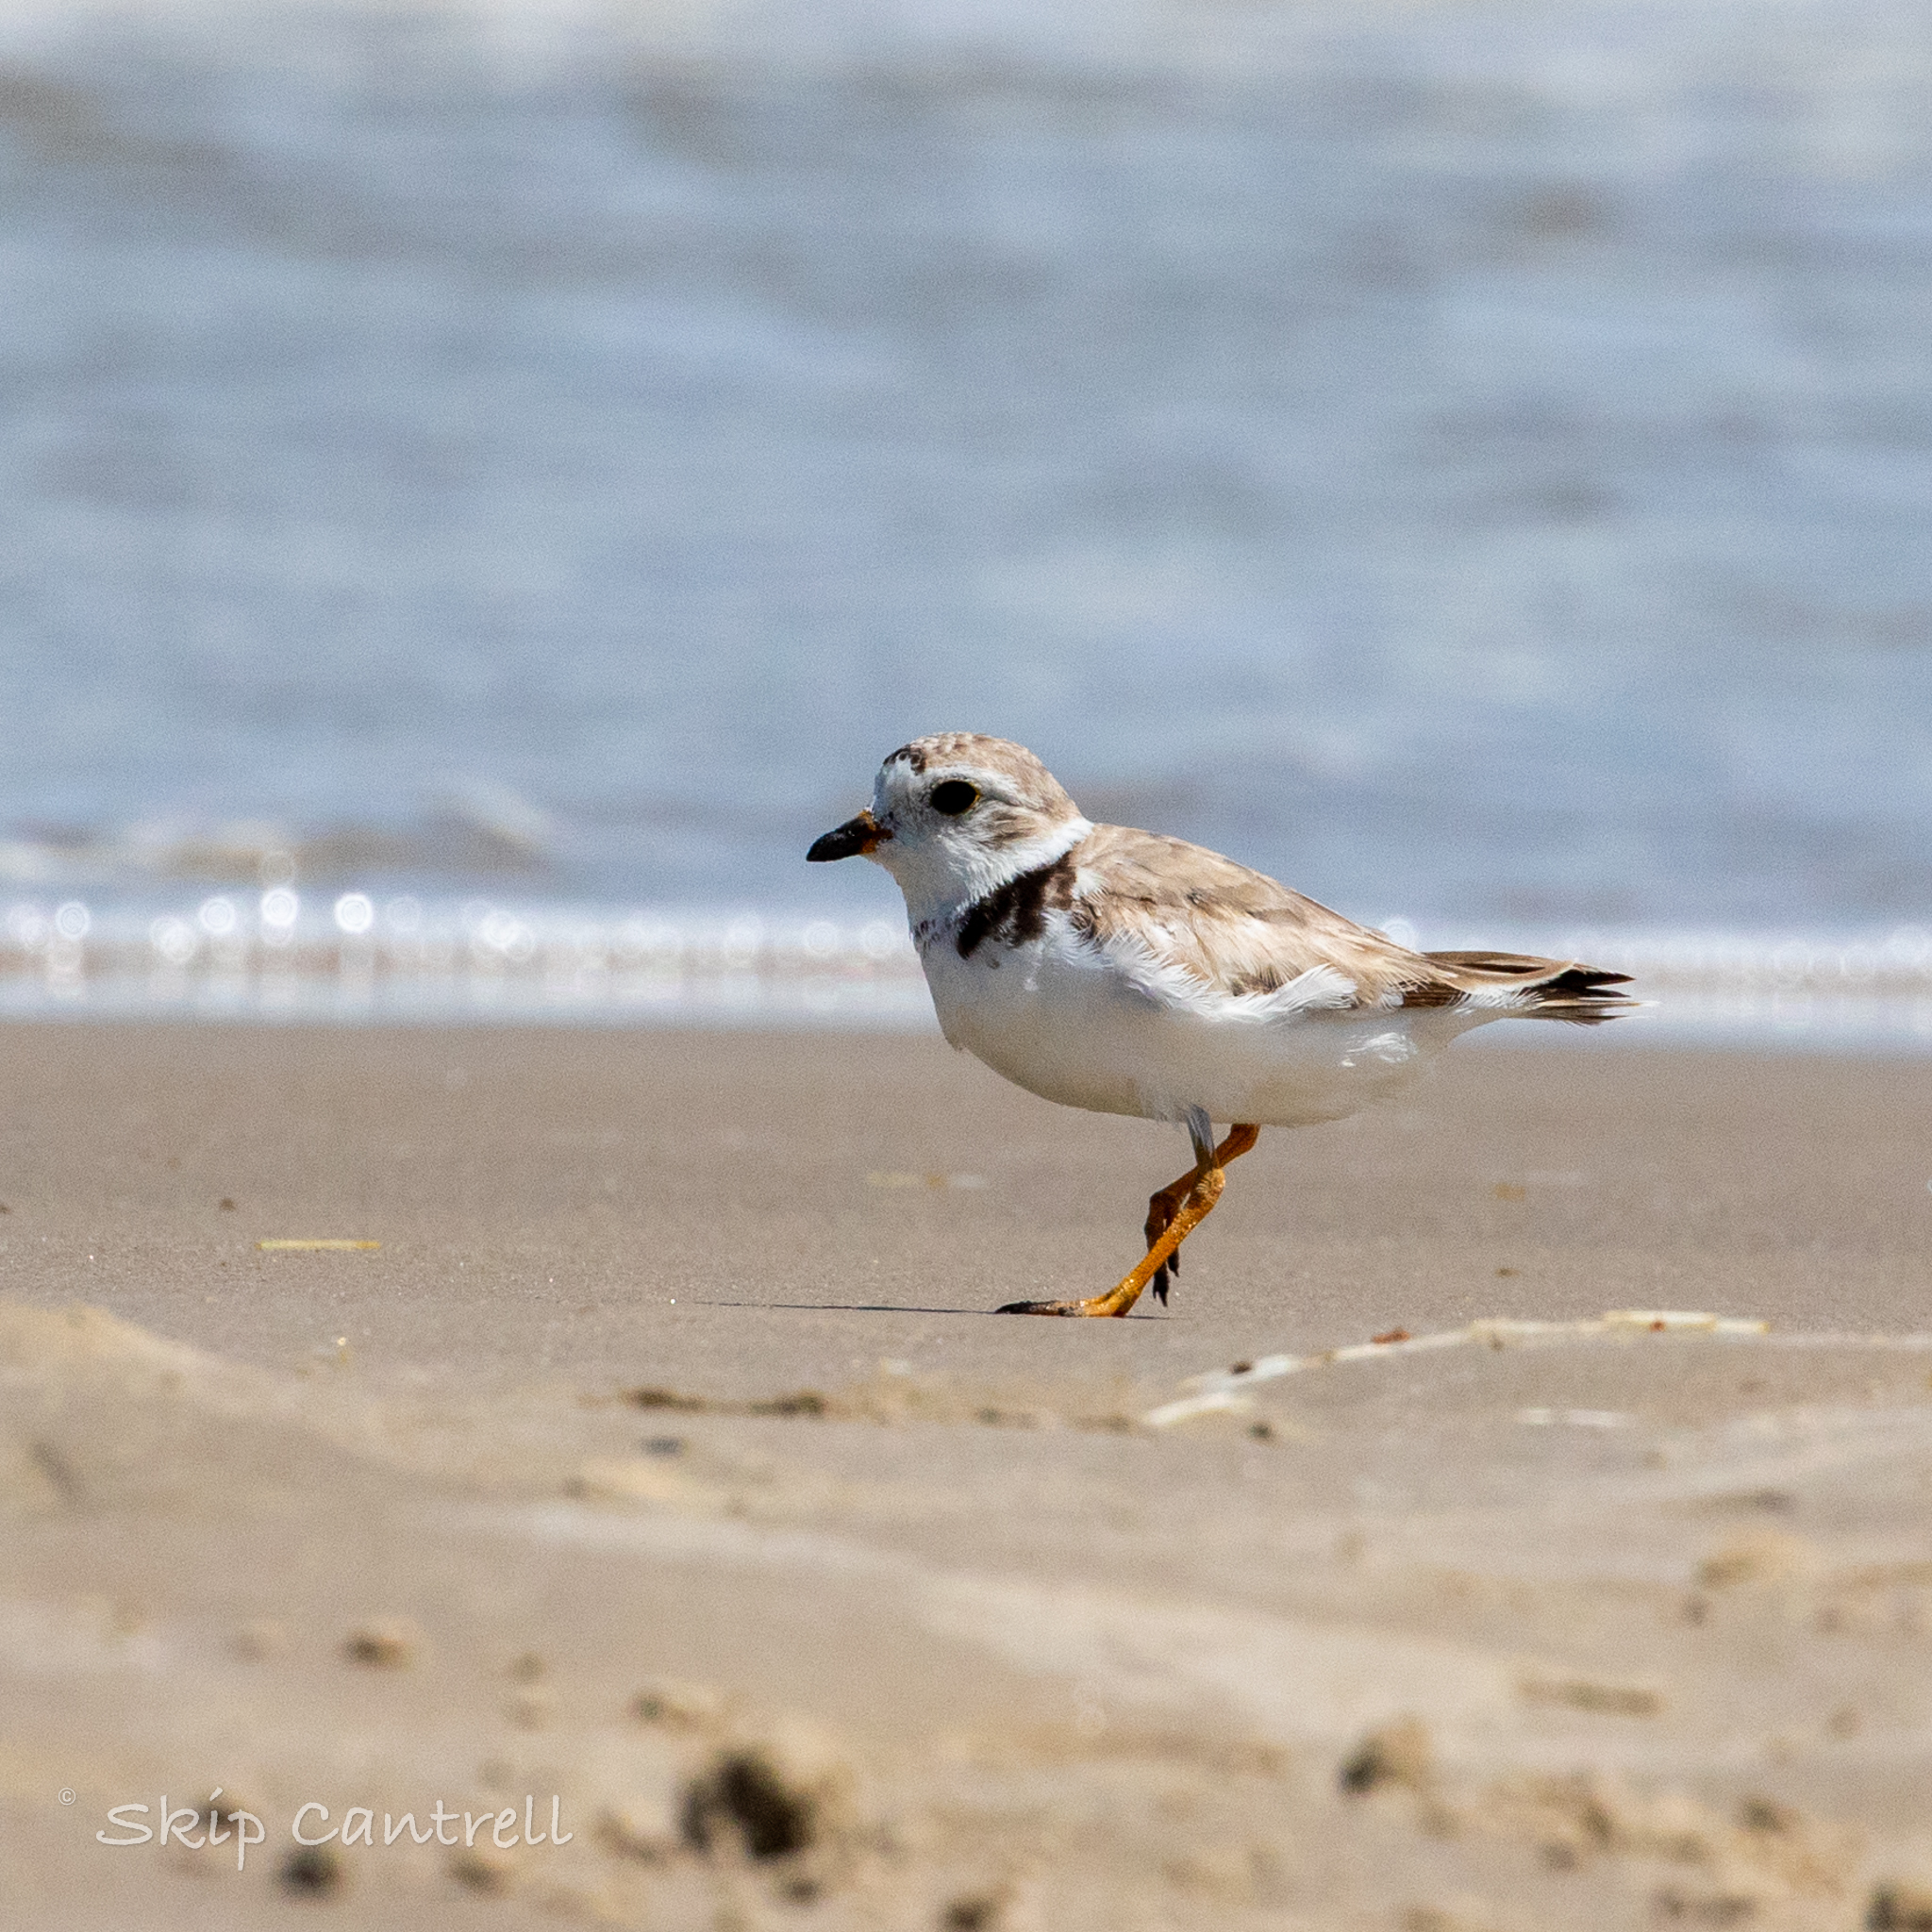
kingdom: Animalia
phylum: Chordata
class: Aves
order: Charadriiformes
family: Charadriidae
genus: Charadrius
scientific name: Charadrius melodus
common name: Piping plover
